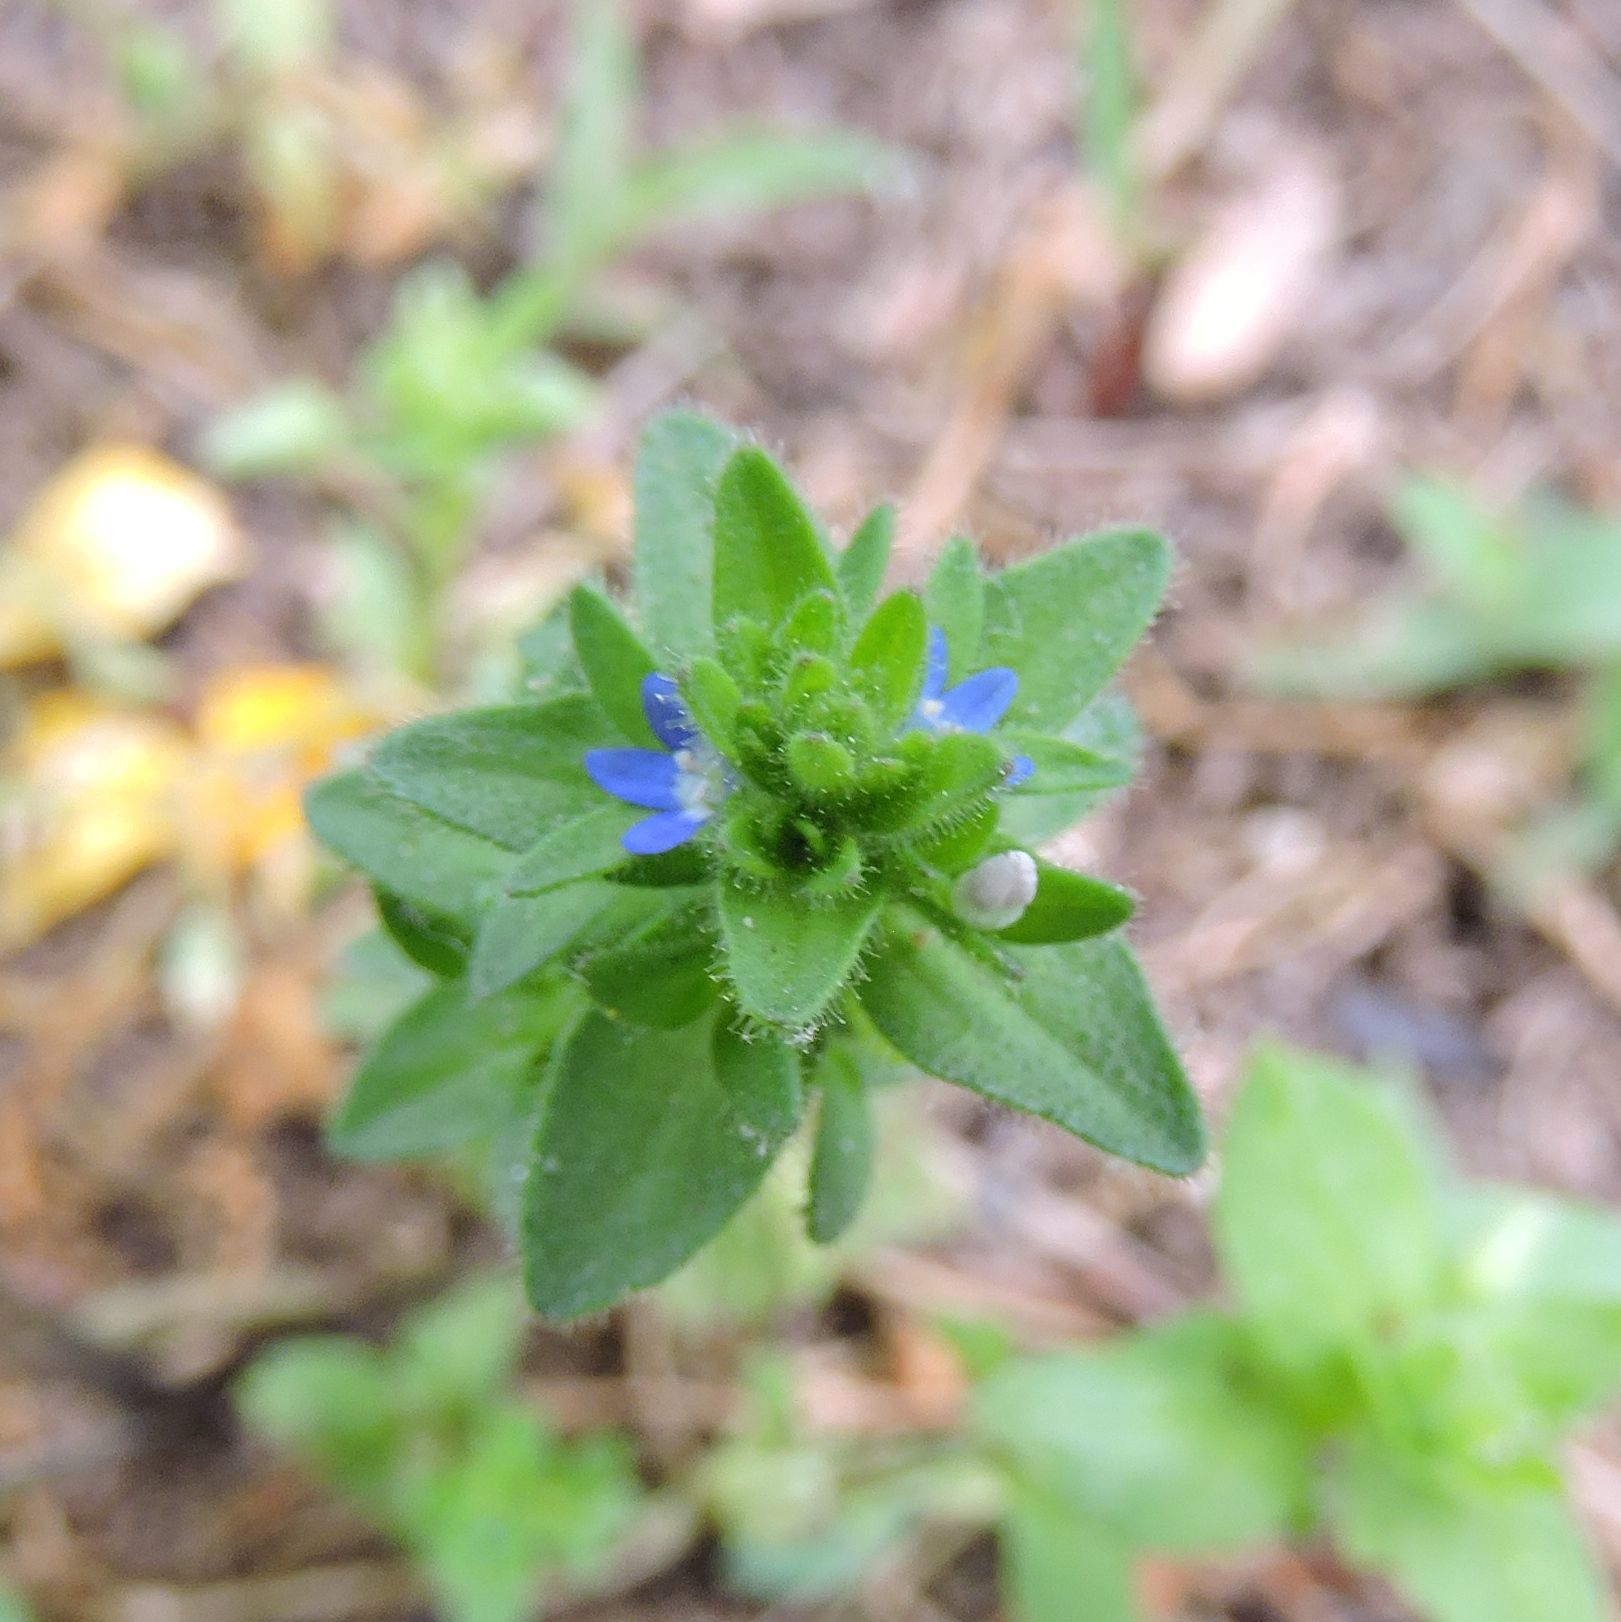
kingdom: Plantae
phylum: Tracheophyta
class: Magnoliopsida
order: Lamiales
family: Plantaginaceae
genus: Veronica
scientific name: Veronica arvensis
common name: Corn speedwell
